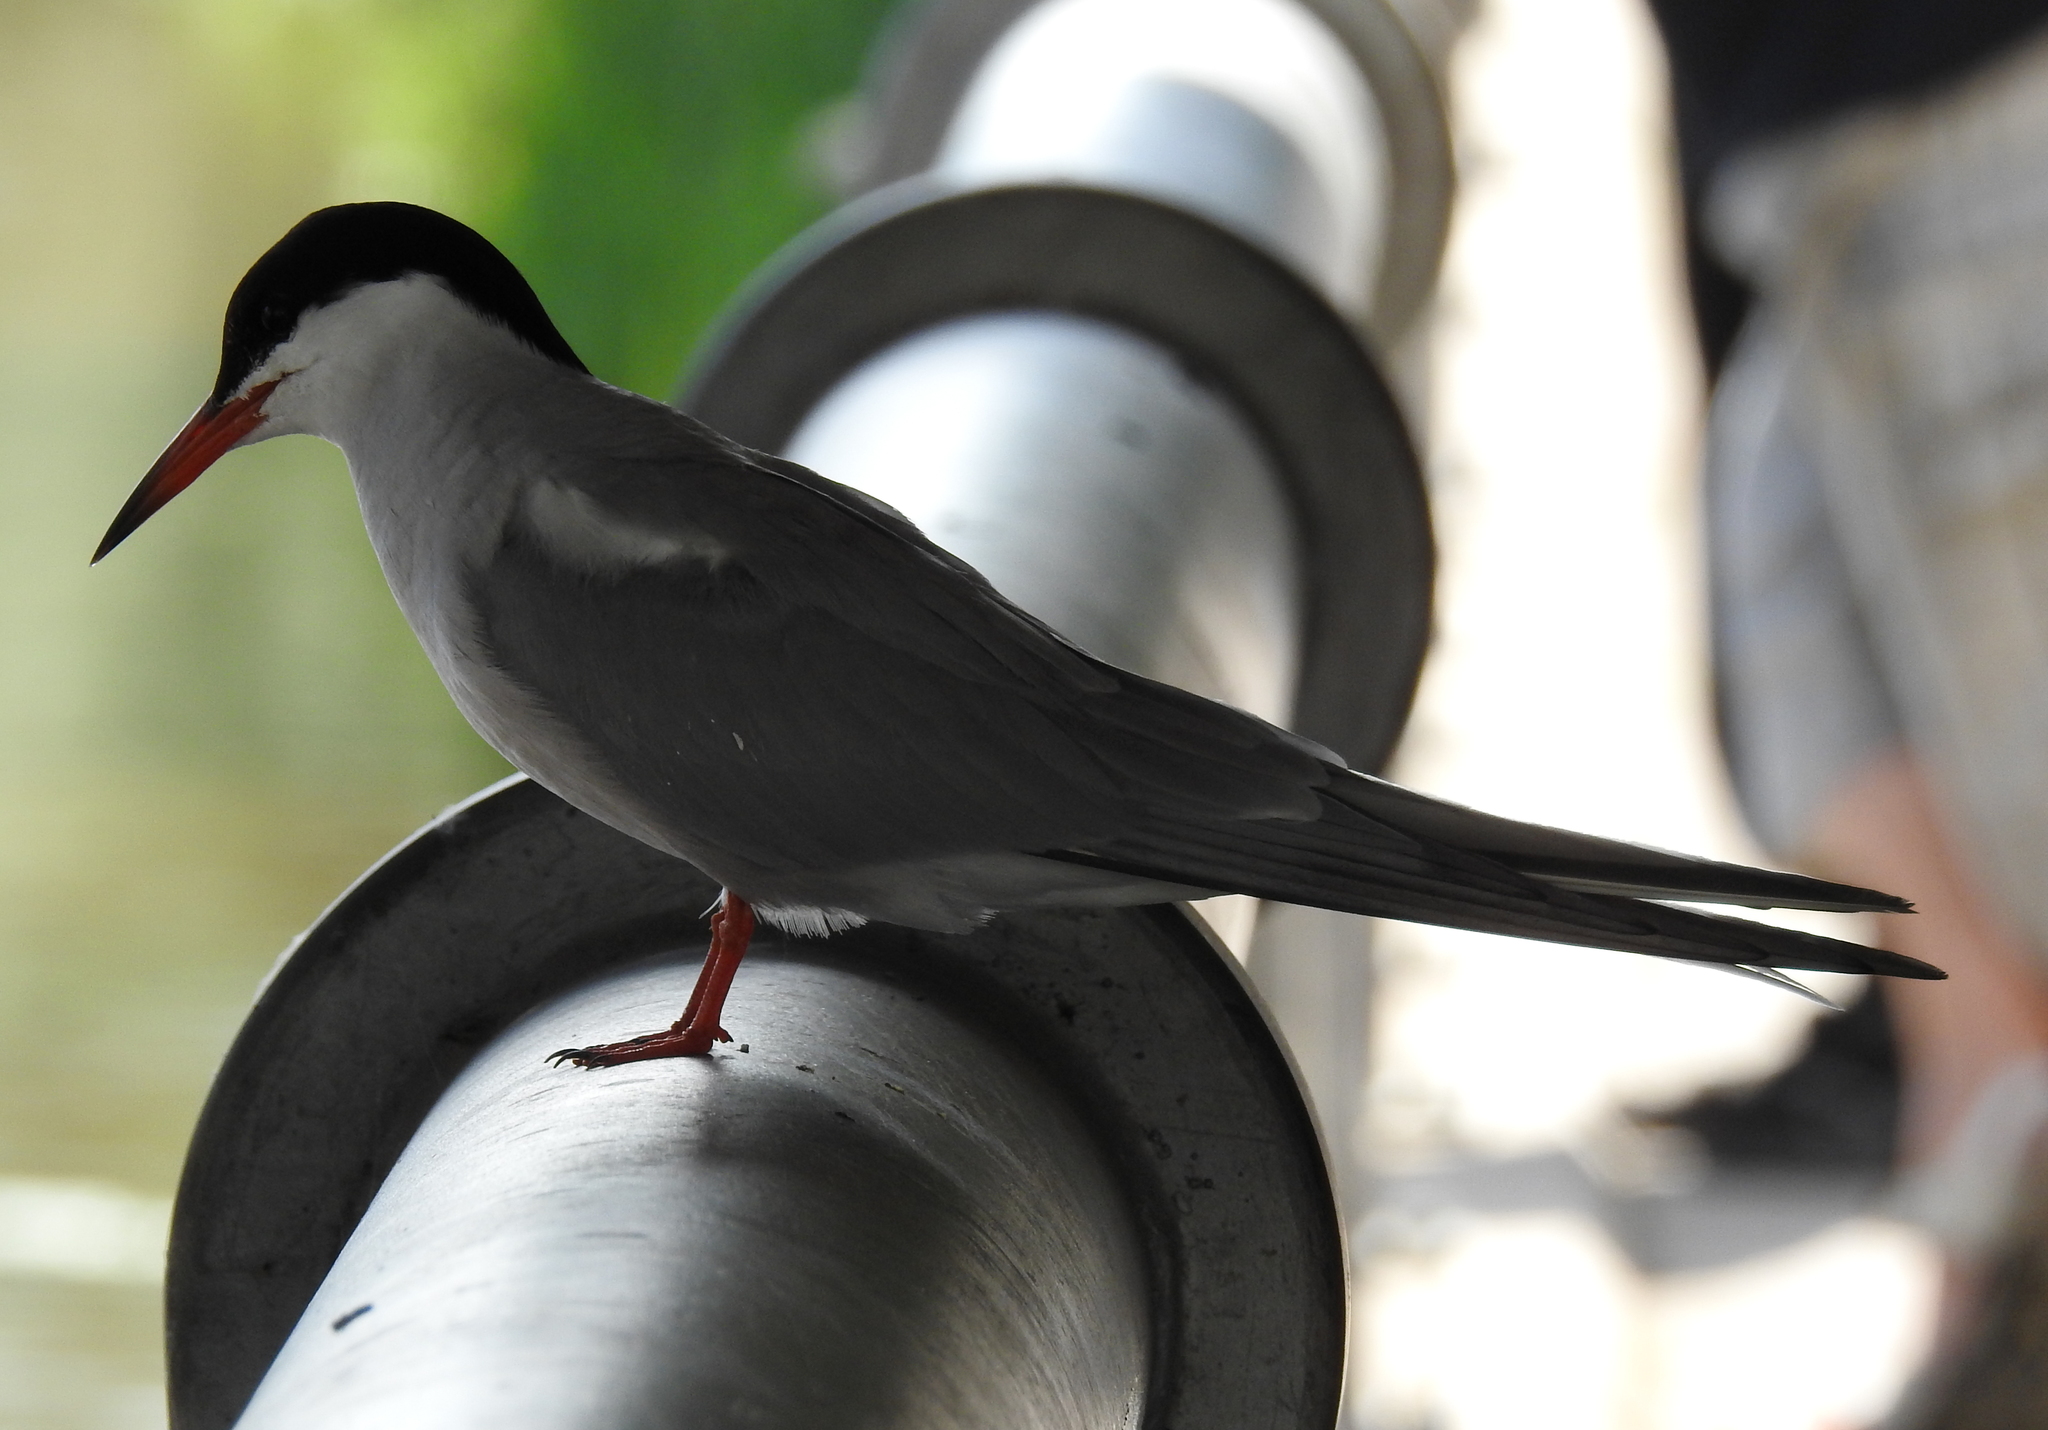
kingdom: Animalia
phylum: Chordata
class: Aves
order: Charadriiformes
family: Laridae
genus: Sterna
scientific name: Sterna hirundo
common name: Common tern
